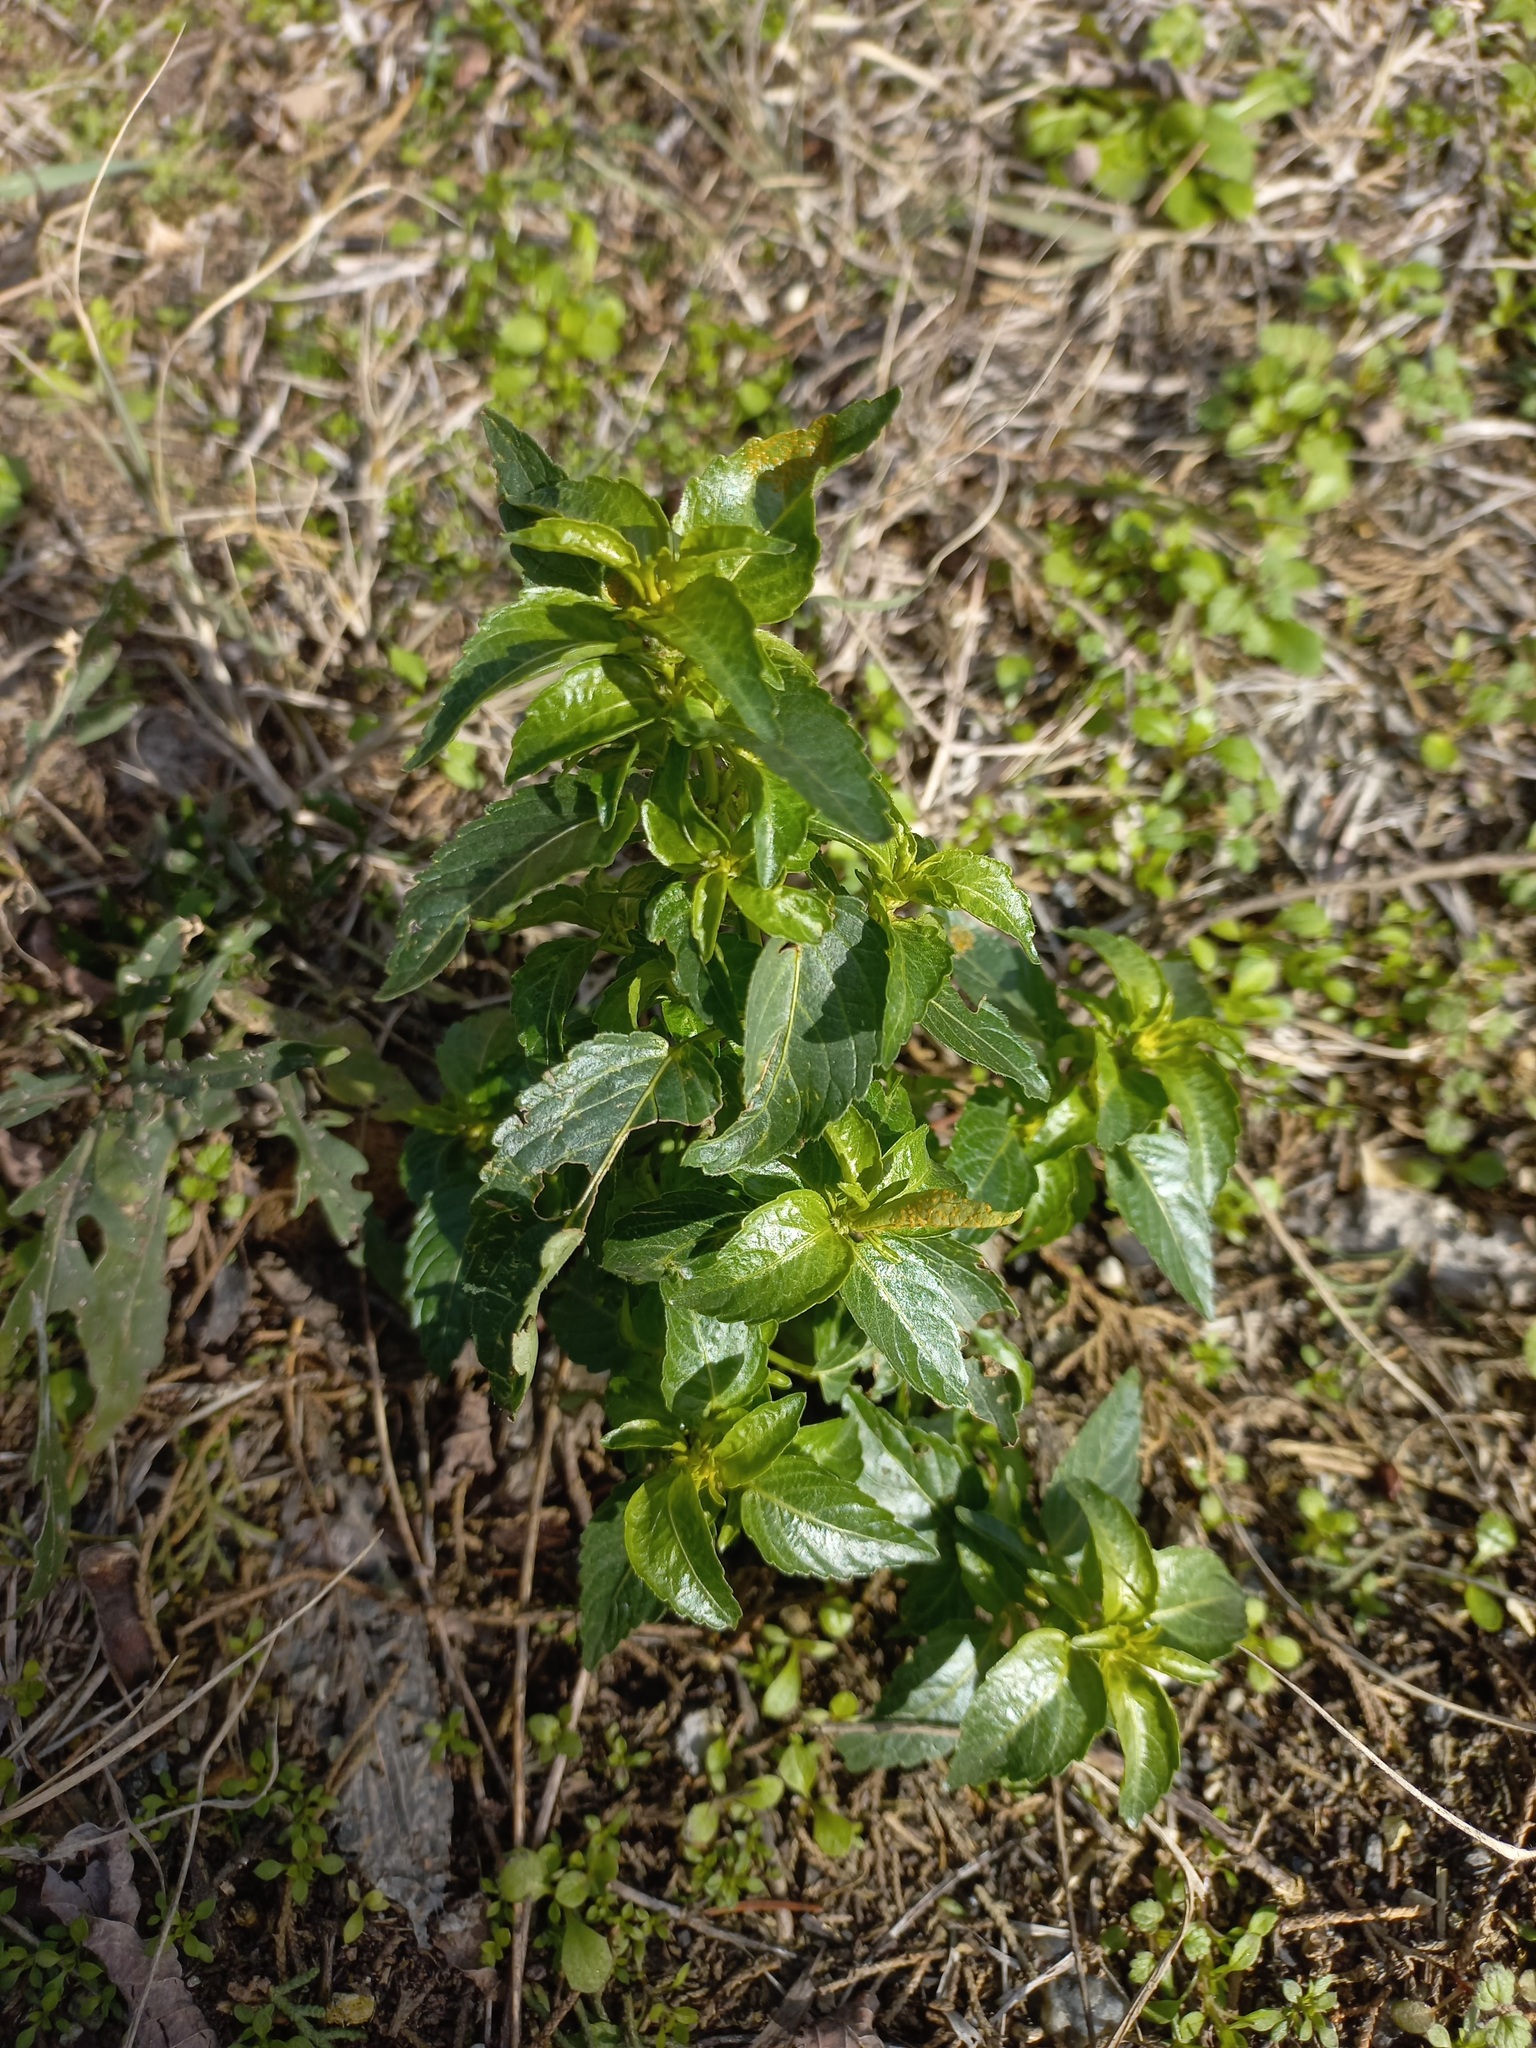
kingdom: Plantae
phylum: Tracheophyta
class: Magnoliopsida
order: Malpighiales
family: Euphorbiaceae
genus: Mercurialis
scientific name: Mercurialis annua
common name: Annual mercury
